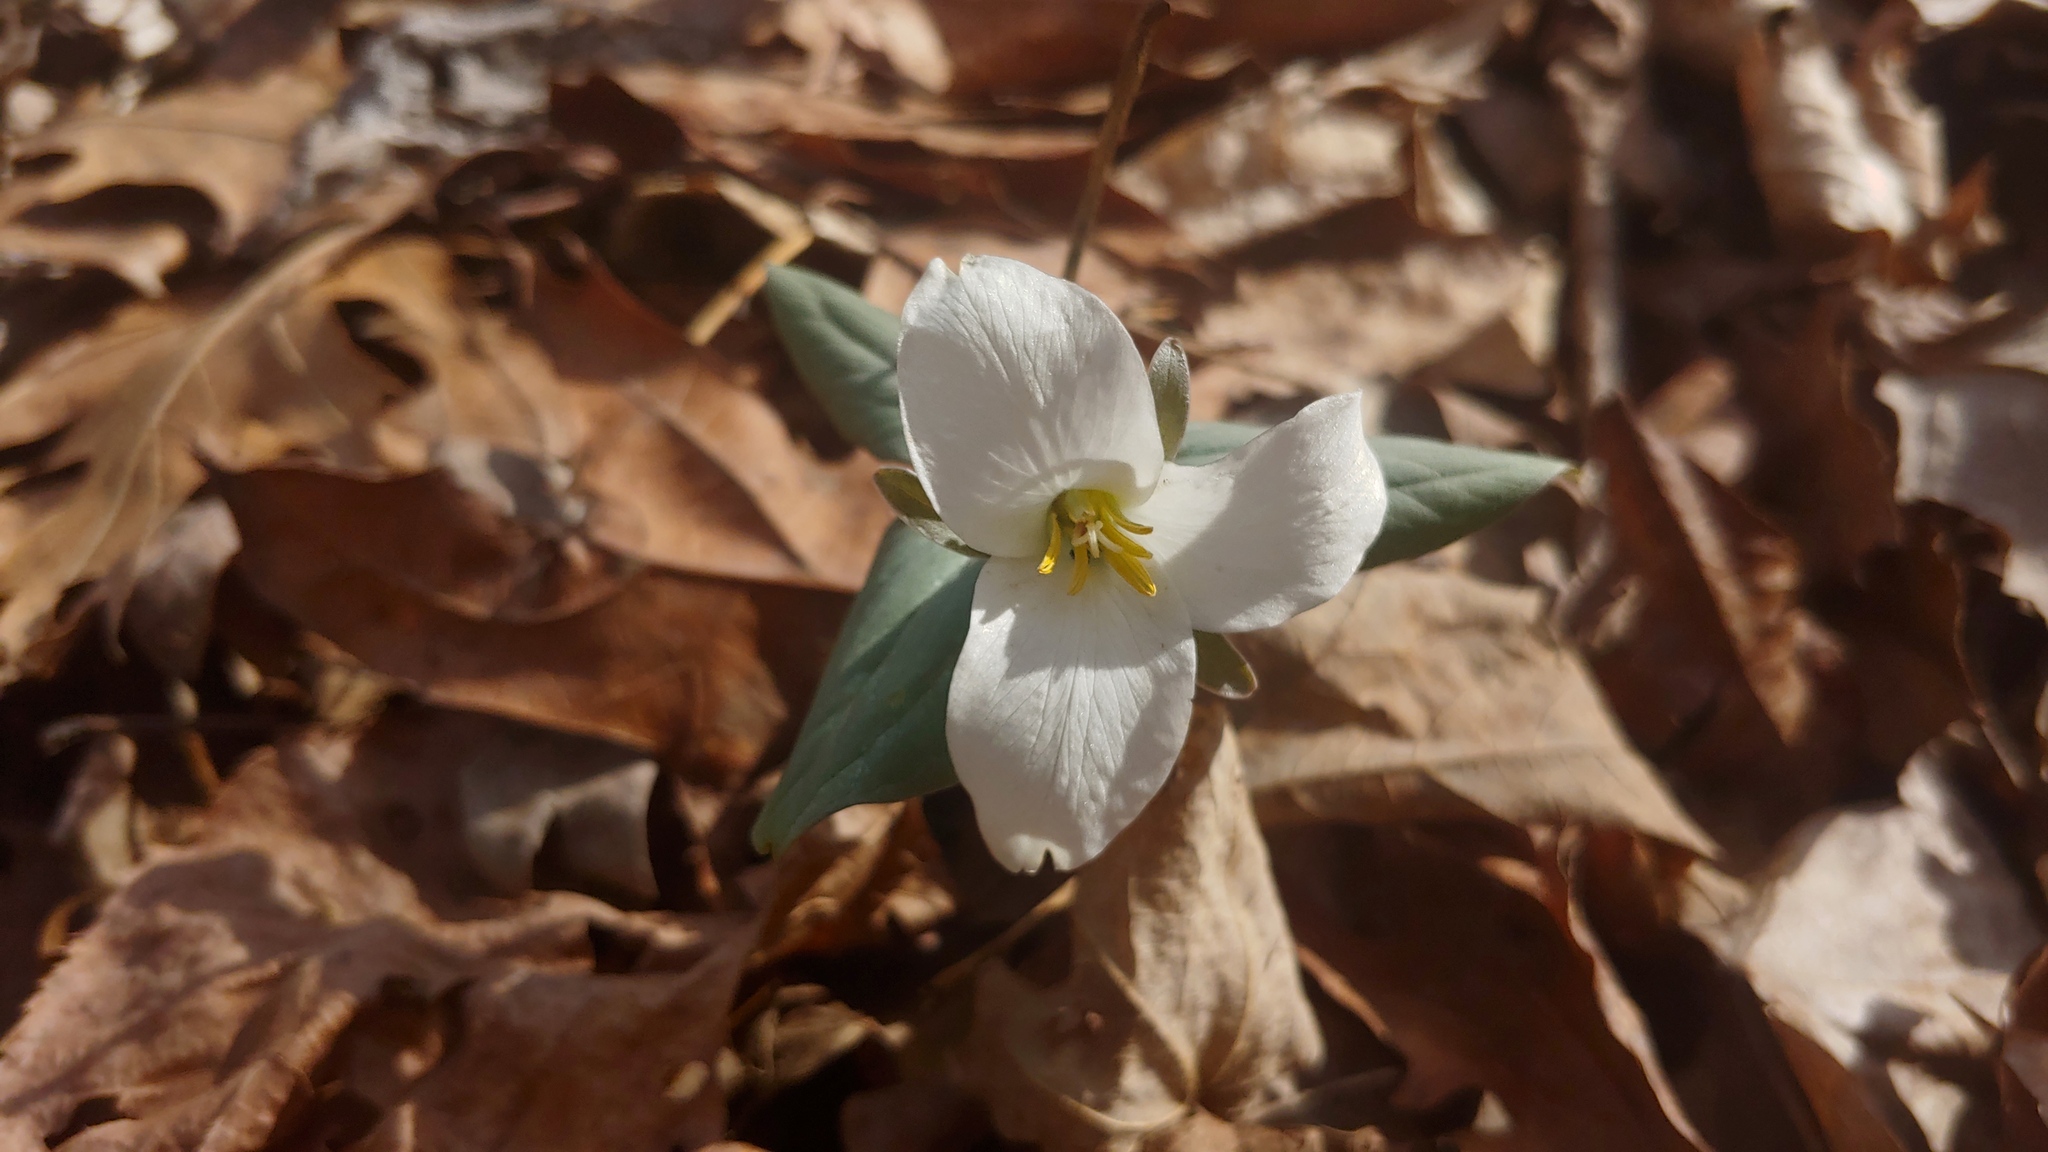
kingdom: Plantae
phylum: Tracheophyta
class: Liliopsida
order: Liliales
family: Melanthiaceae
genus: Trillium
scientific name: Trillium nivale
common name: Dwarf white trillium
